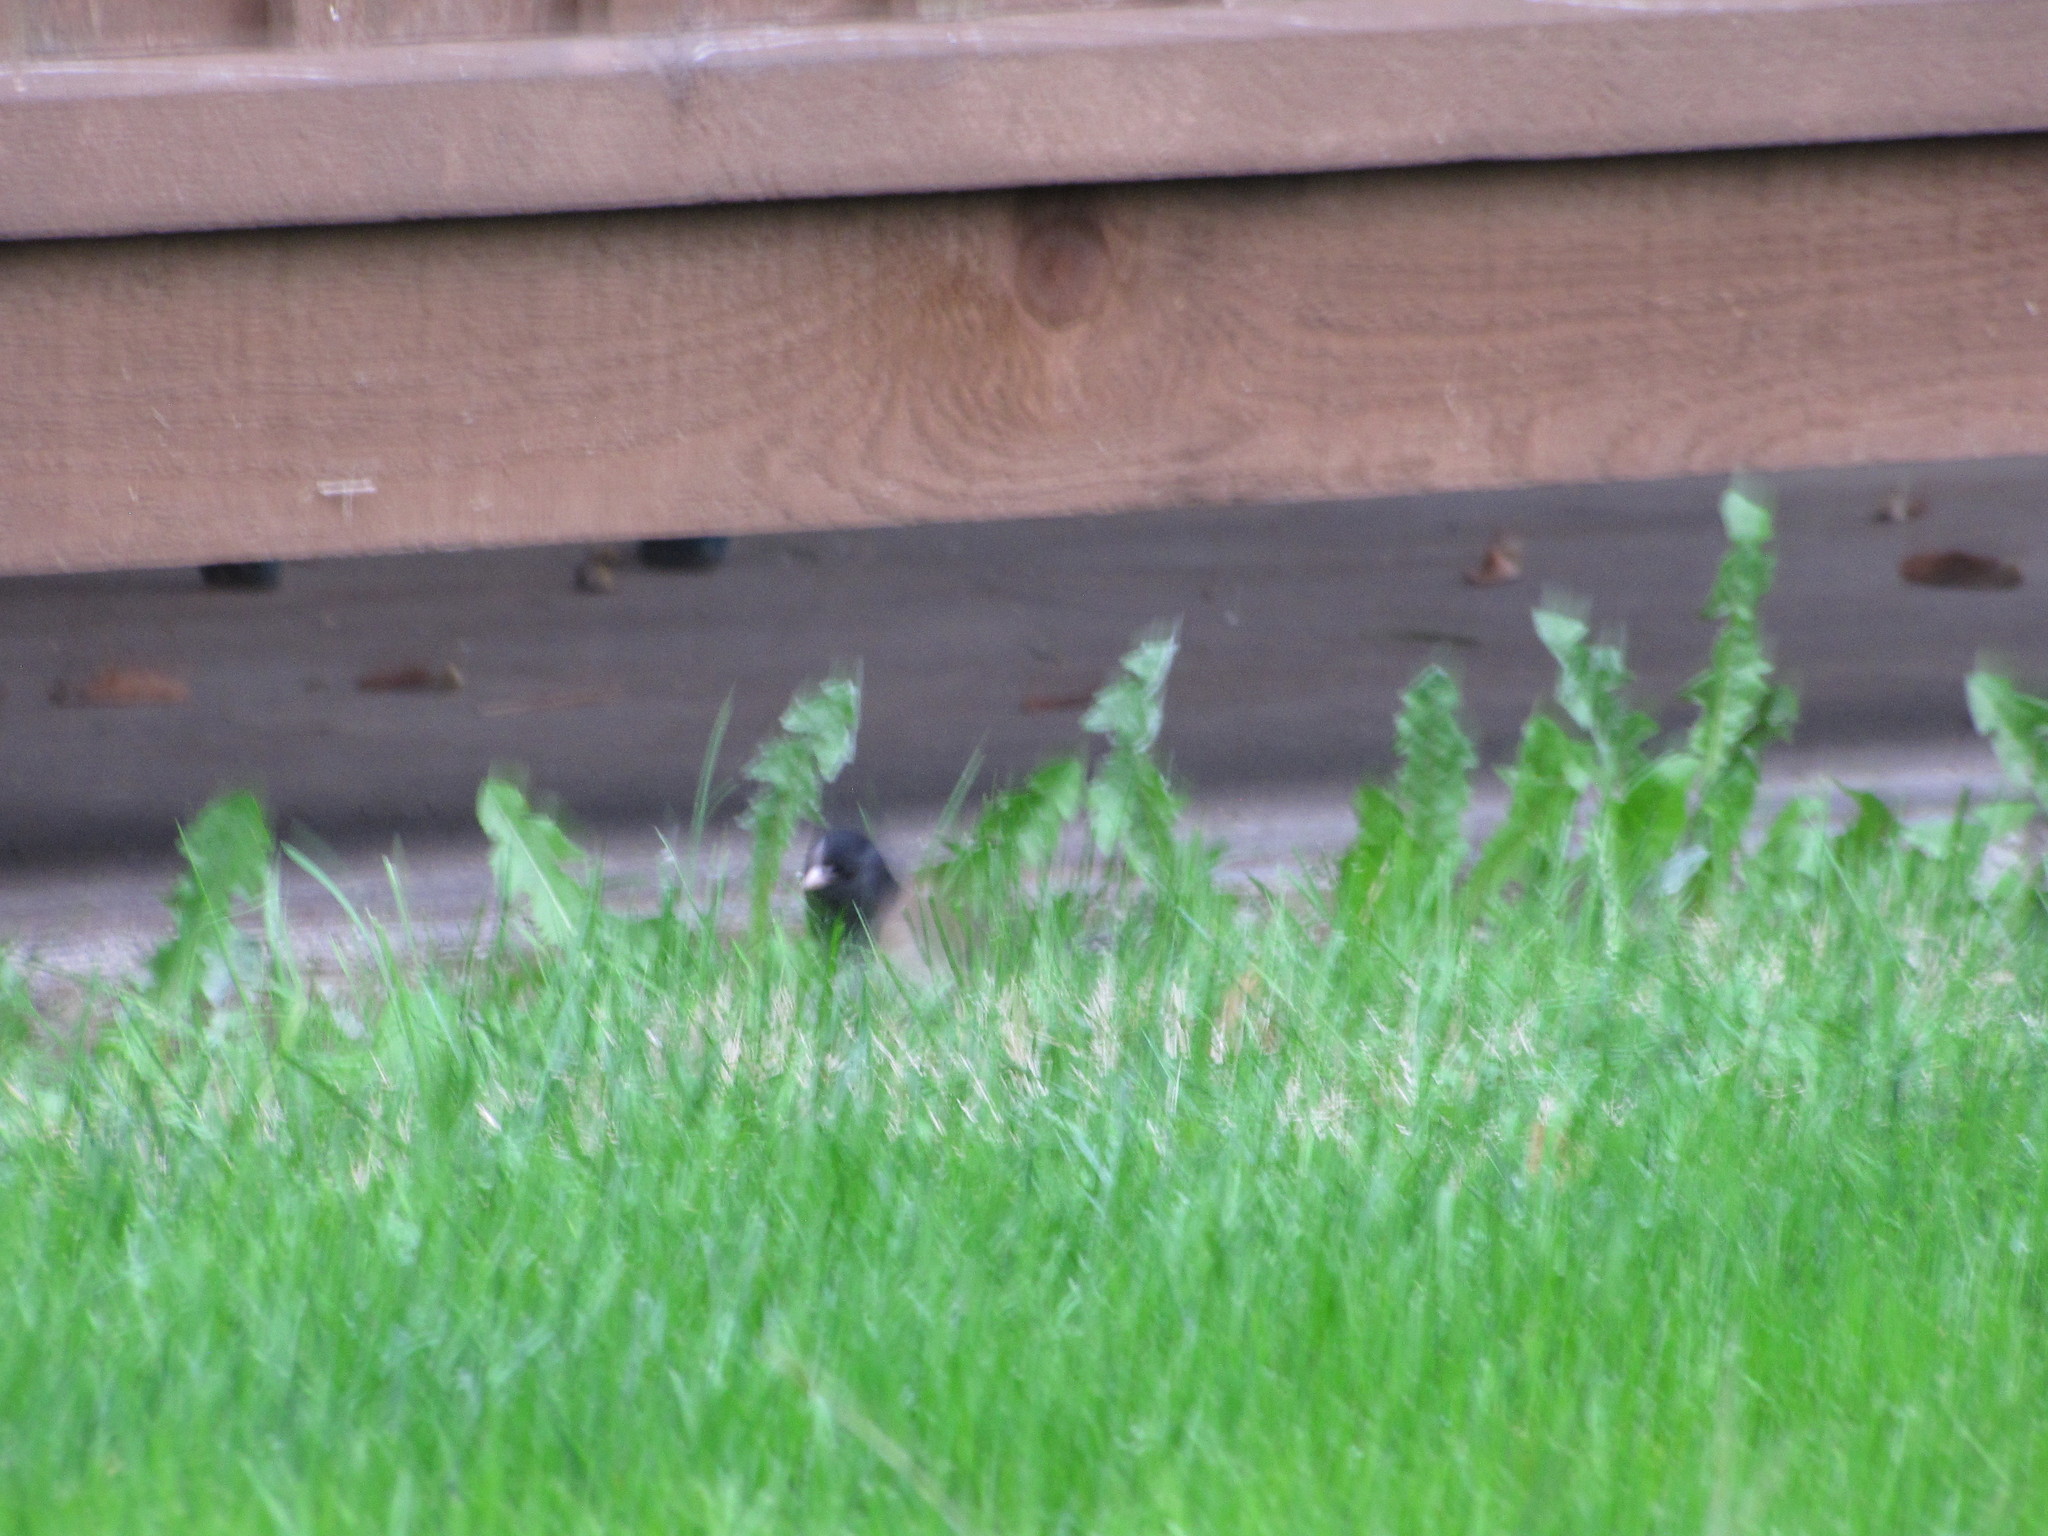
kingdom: Animalia
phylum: Chordata
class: Aves
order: Passeriformes
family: Passerellidae
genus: Junco
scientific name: Junco hyemalis
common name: Dark-eyed junco
